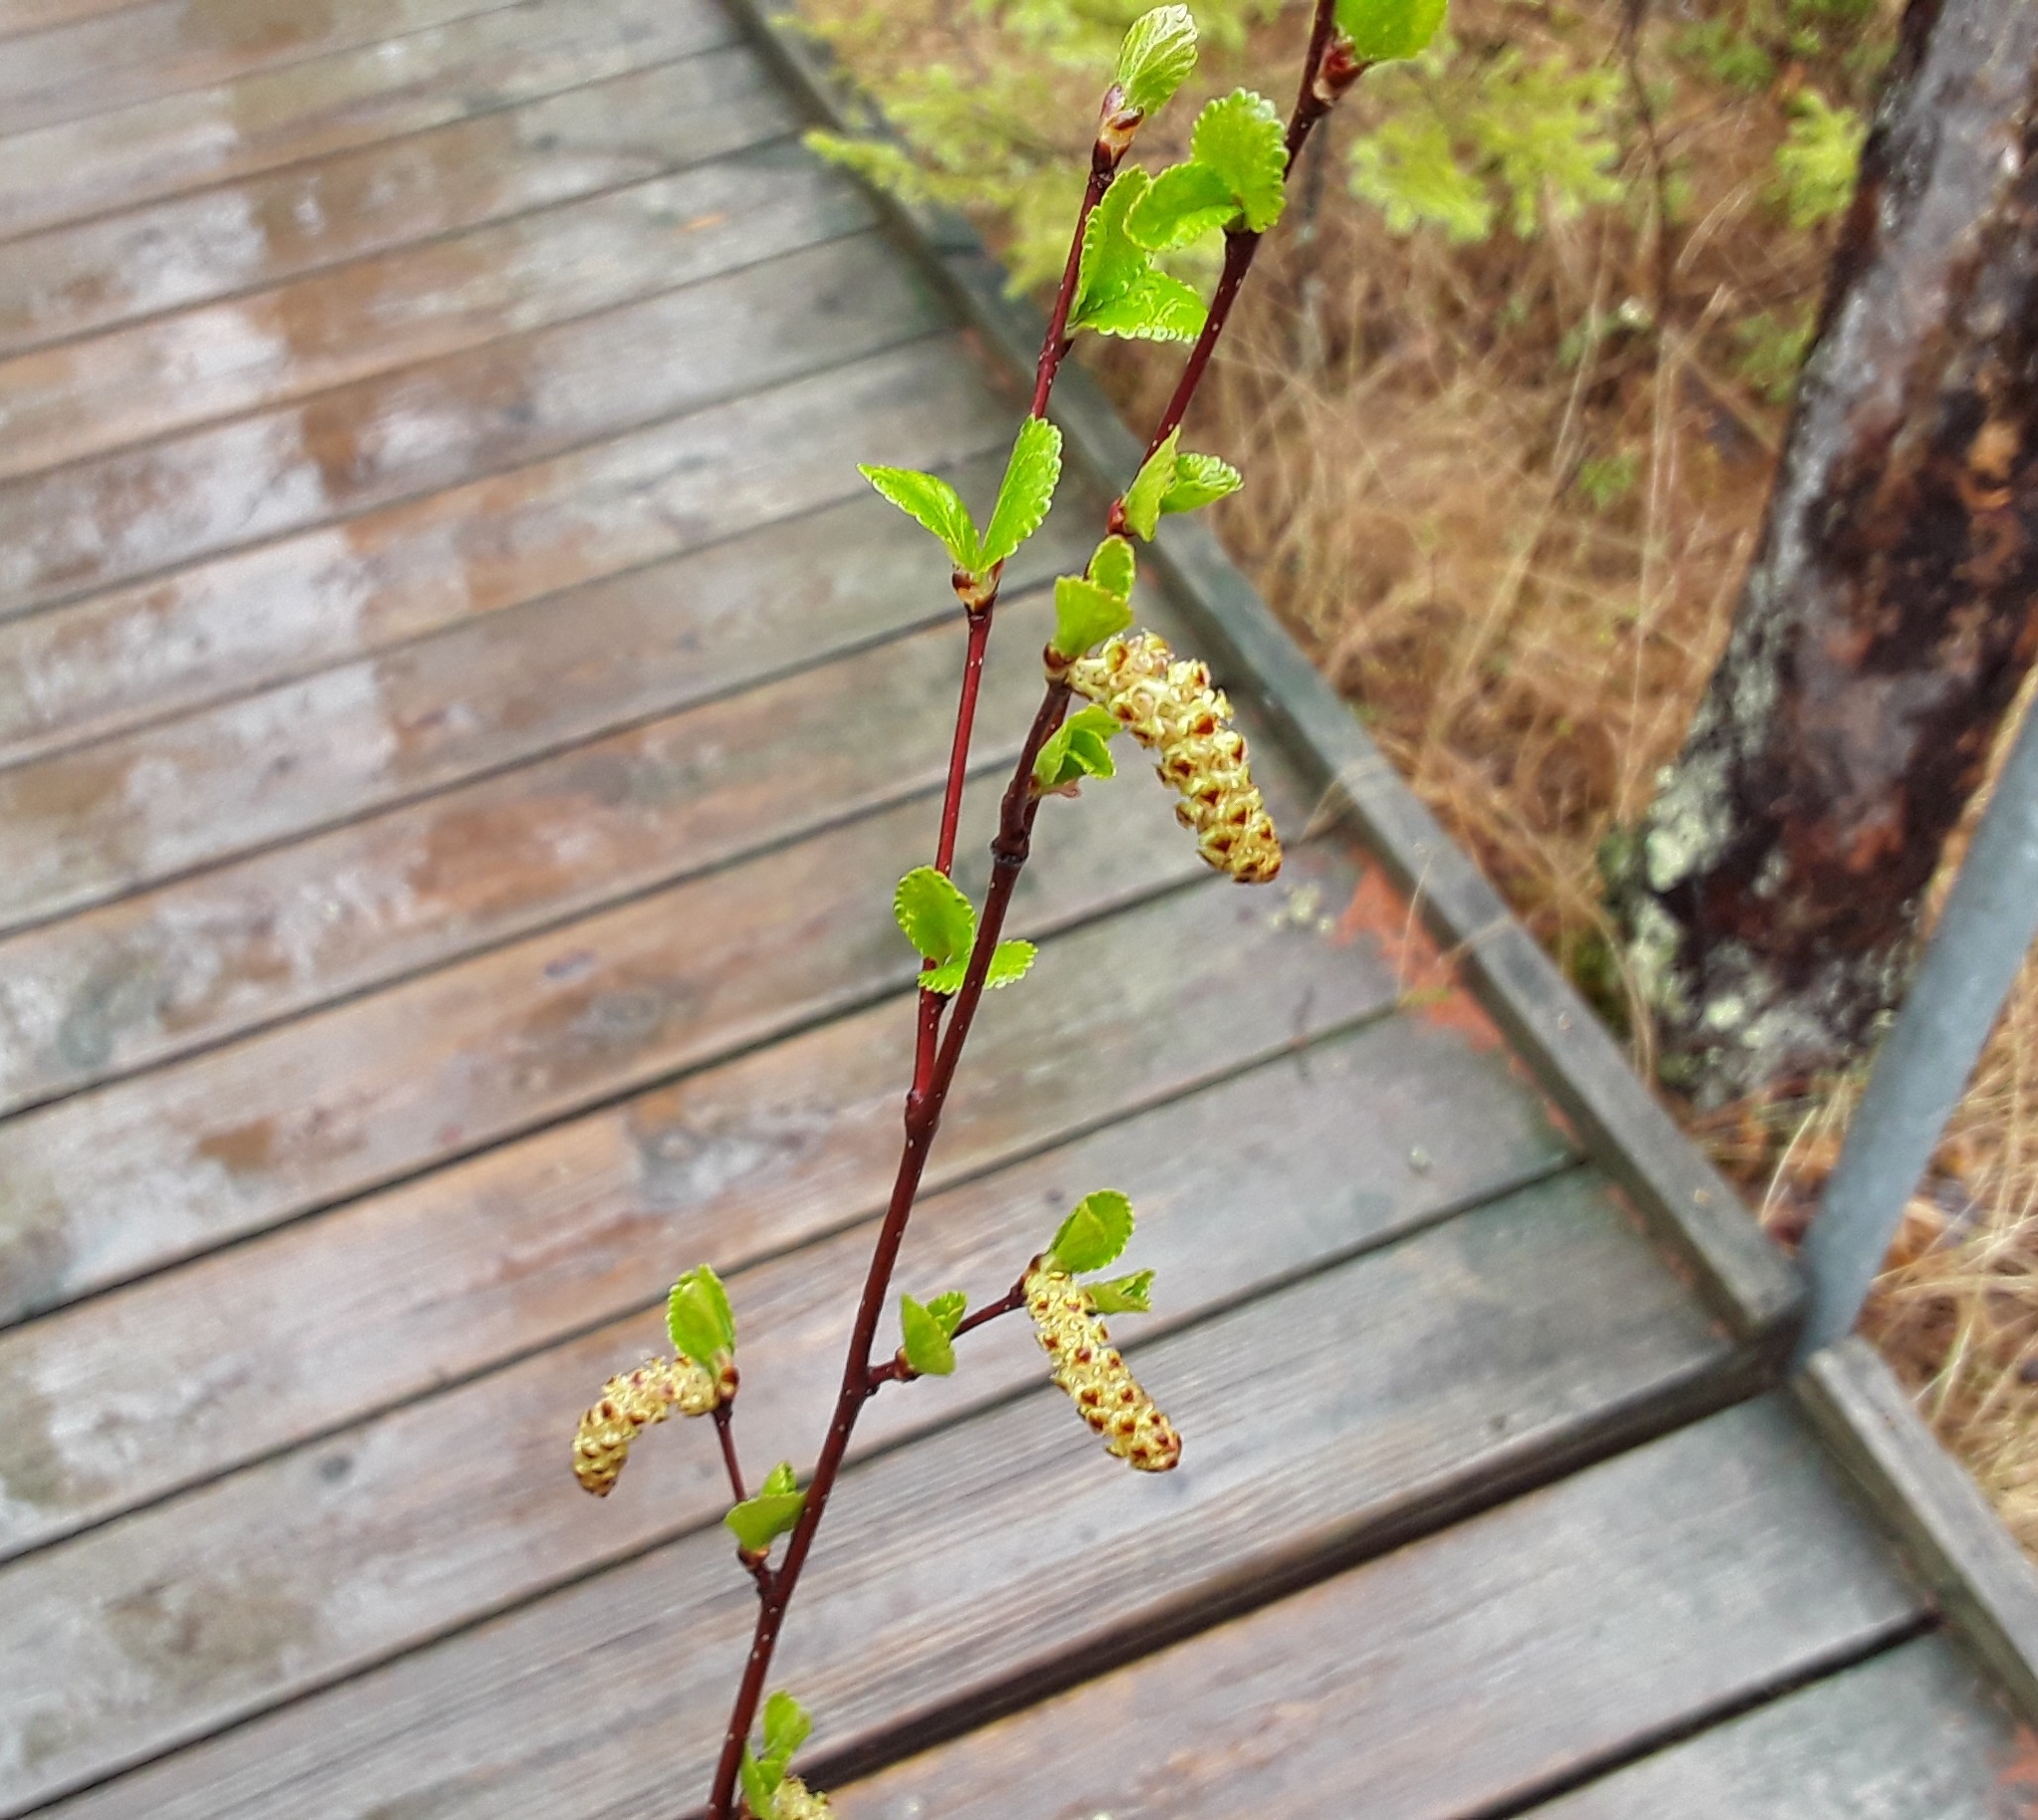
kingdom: Plantae
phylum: Tracheophyta
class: Magnoliopsida
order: Fagales
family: Betulaceae
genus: Betula
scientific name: Betula pumila
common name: Bog birch
